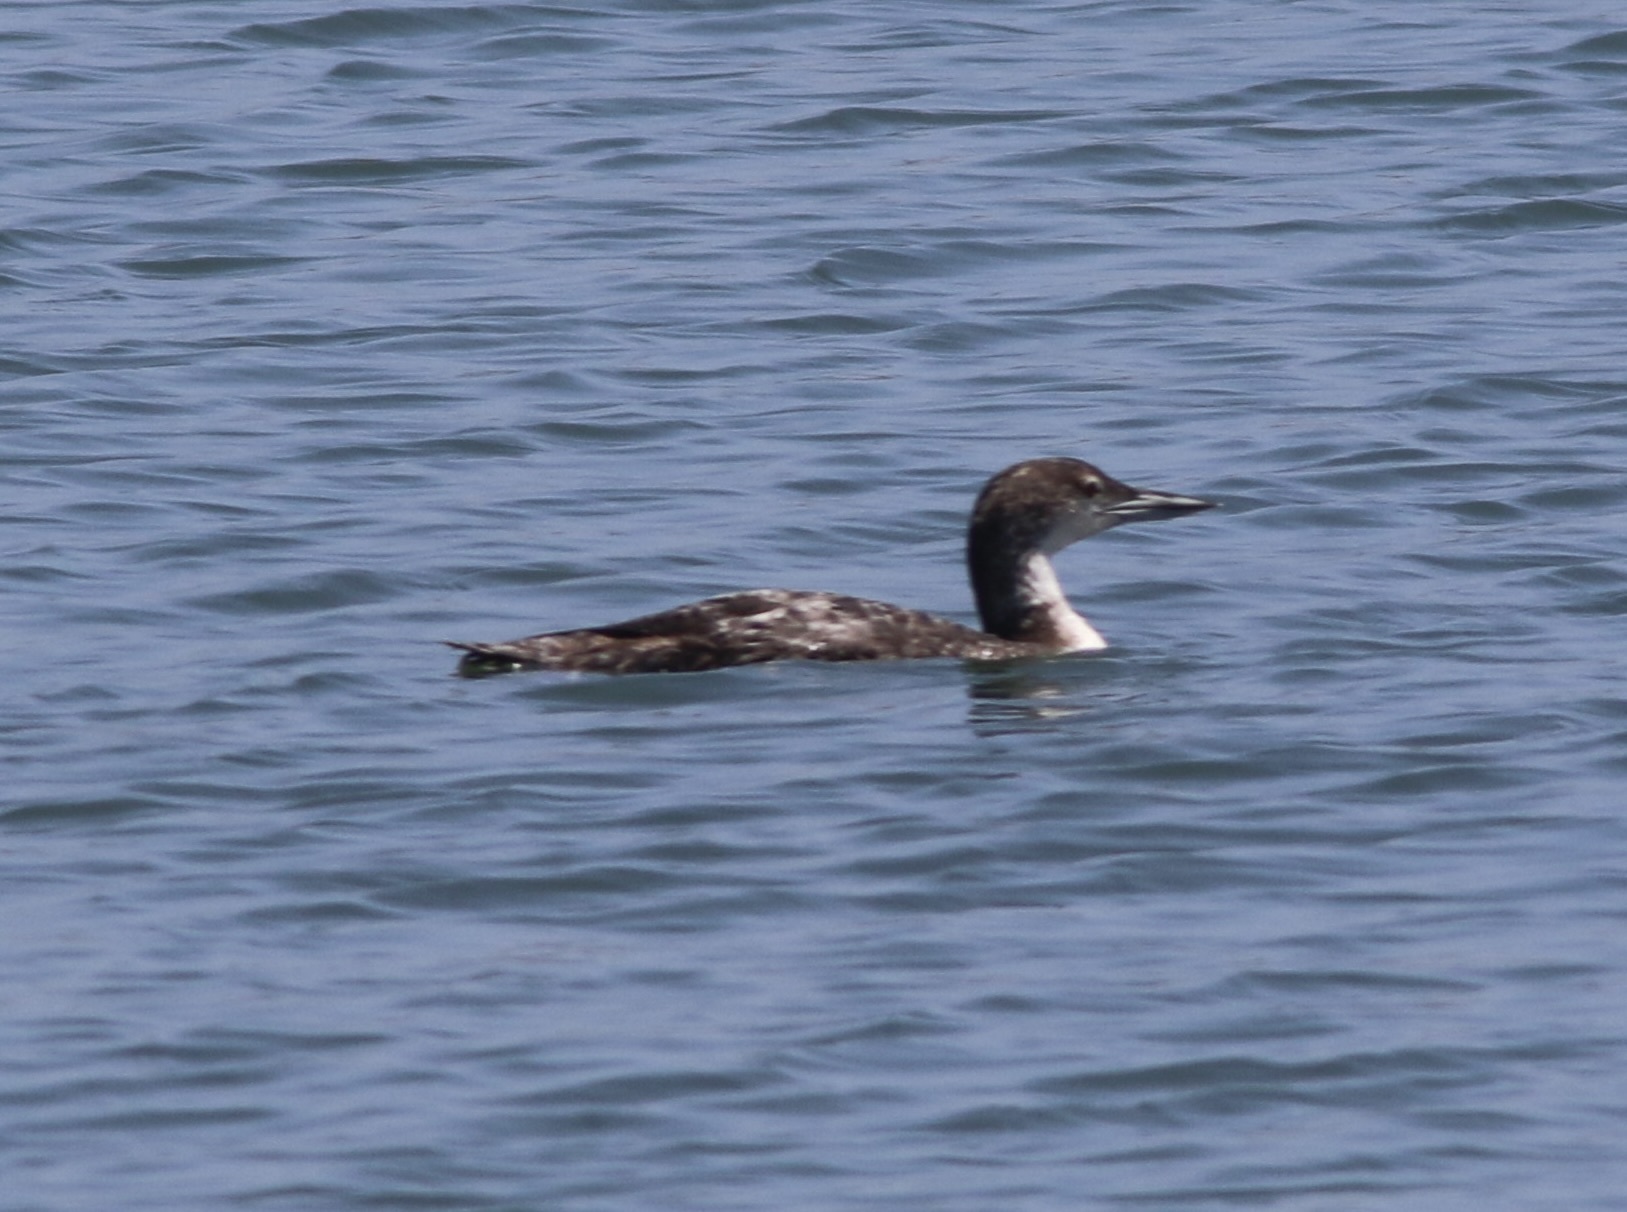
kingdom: Animalia
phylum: Chordata
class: Aves
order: Gaviiformes
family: Gaviidae
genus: Gavia
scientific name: Gavia immer
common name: Common loon
